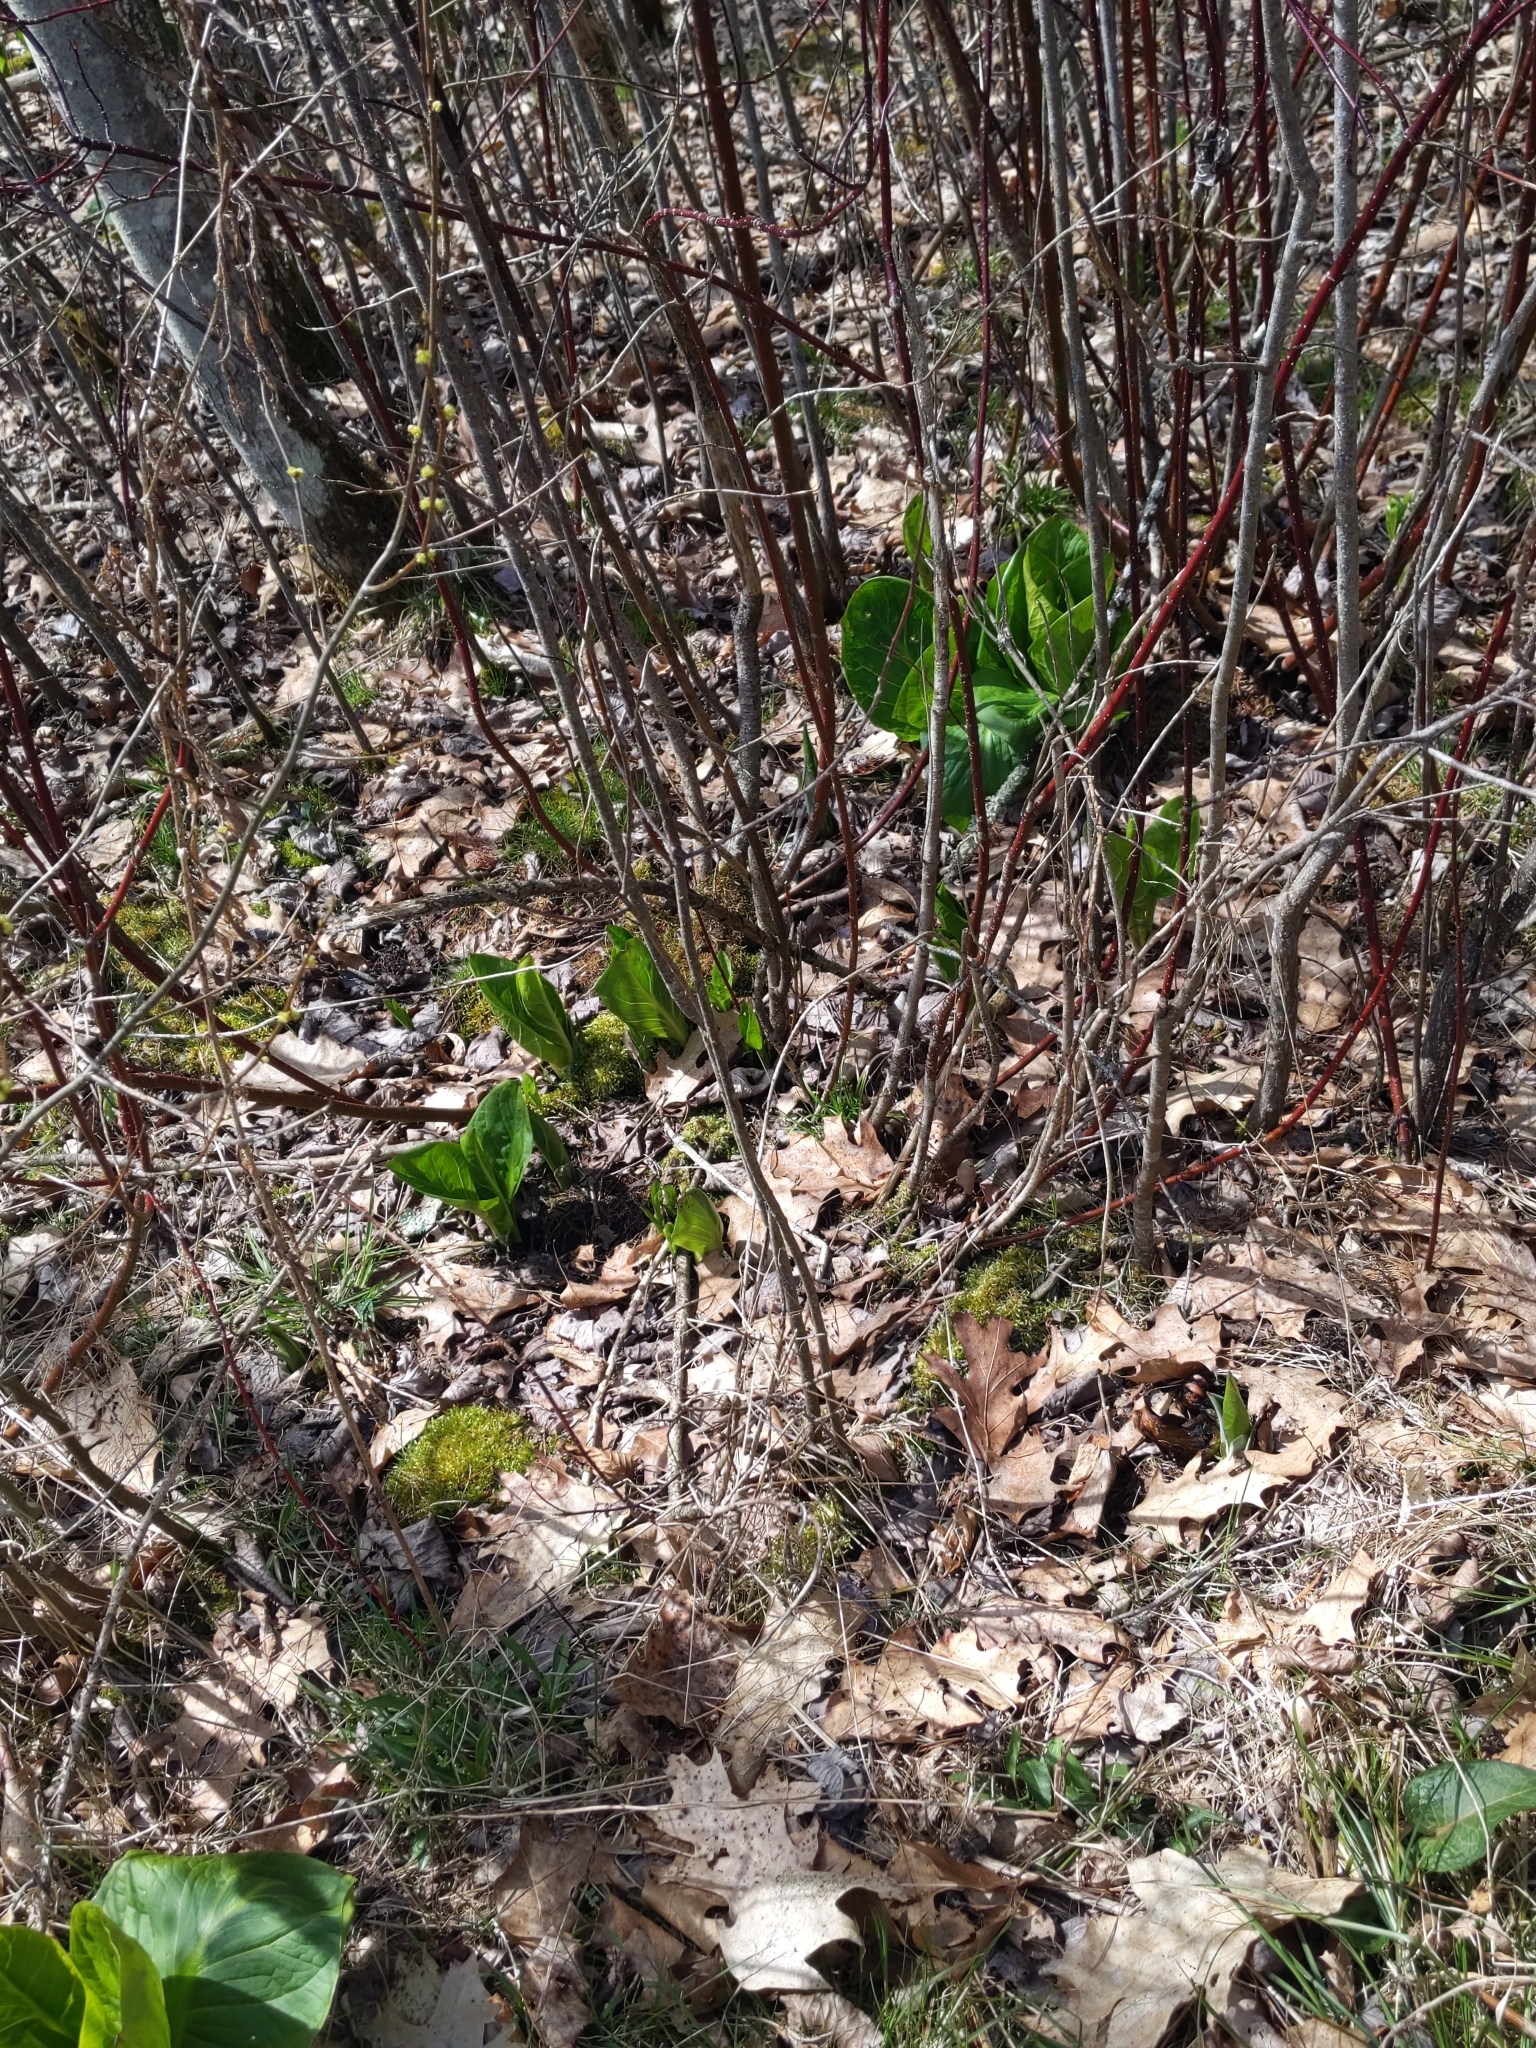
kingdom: Plantae
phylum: Tracheophyta
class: Liliopsida
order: Alismatales
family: Araceae
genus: Symplocarpus
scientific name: Symplocarpus foetidus
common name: Eastern skunk cabbage
